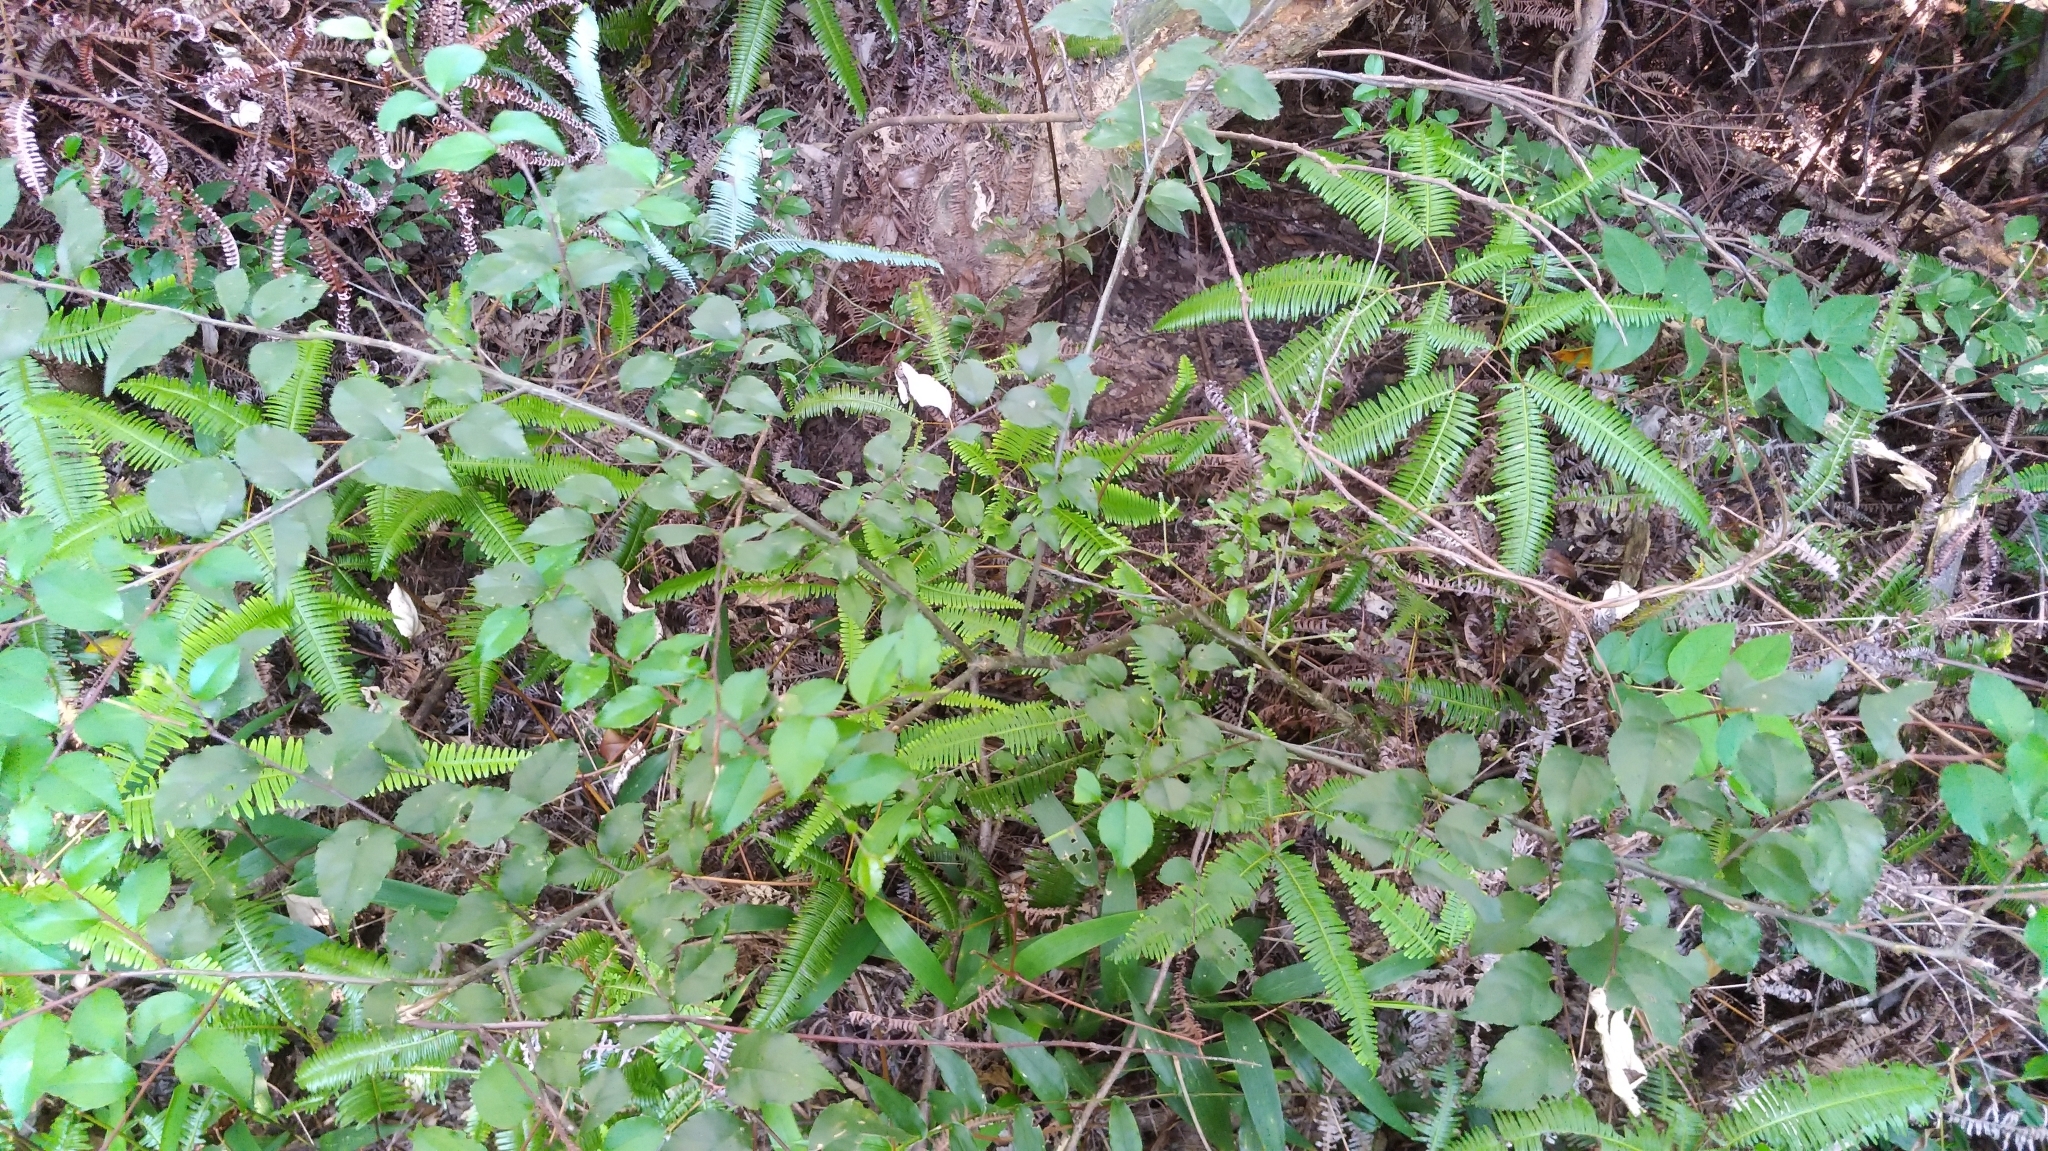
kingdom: Plantae
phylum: Tracheophyta
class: Magnoliopsida
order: Aquifoliales
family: Aquifoliaceae
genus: Ilex
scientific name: Ilex asprella
